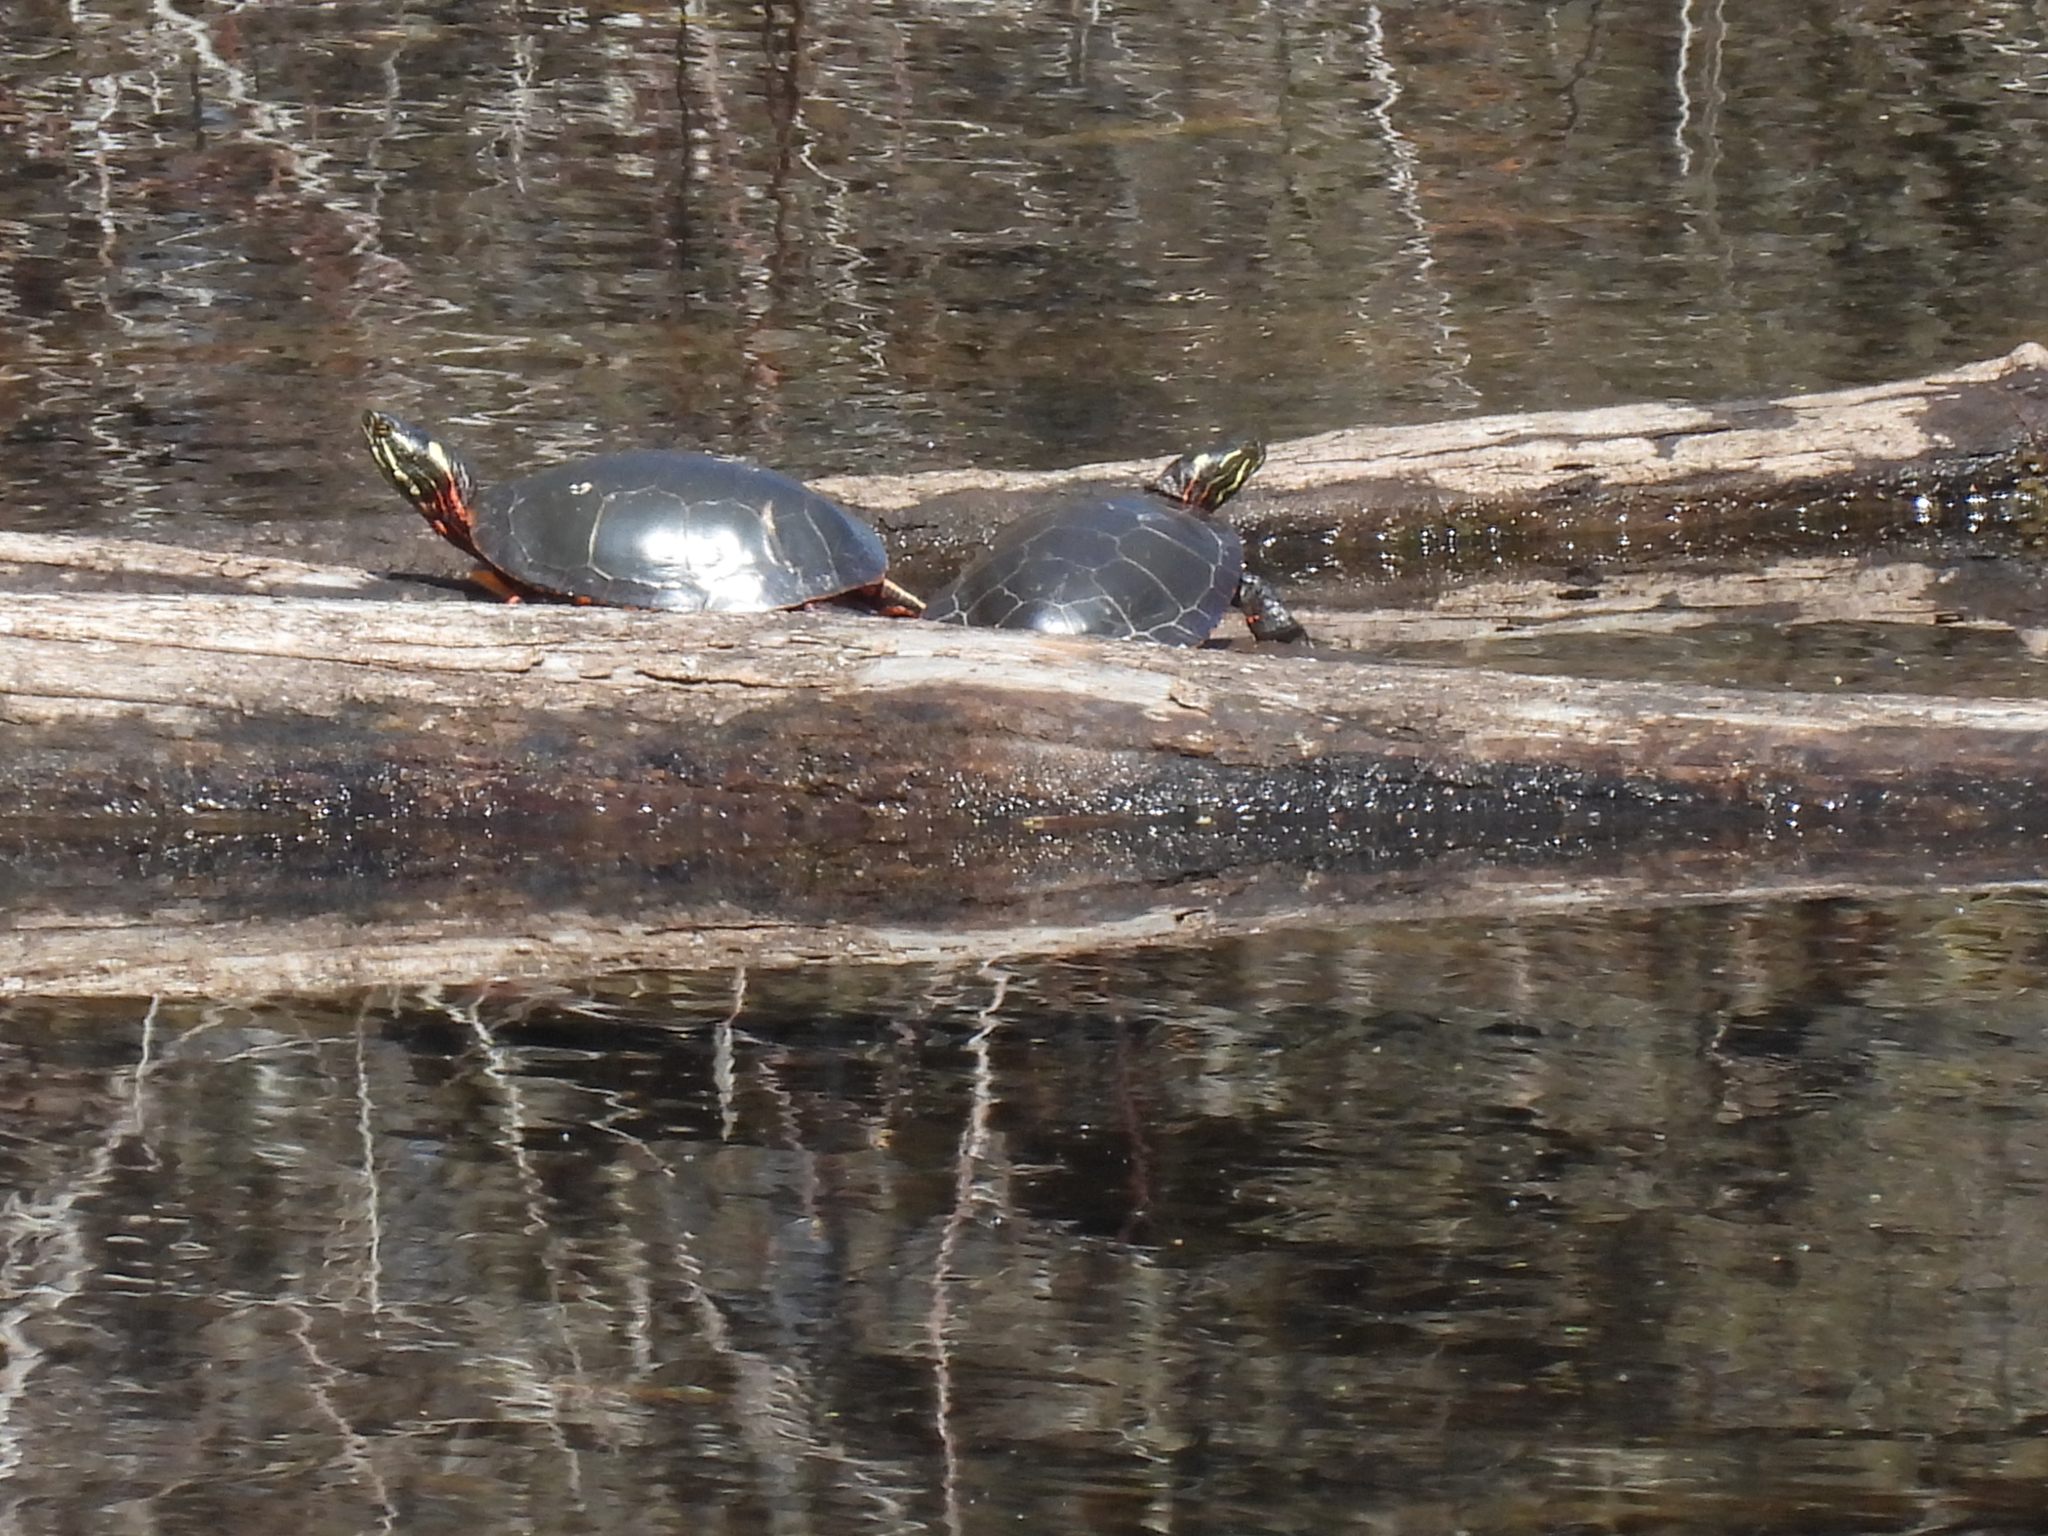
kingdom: Animalia
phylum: Chordata
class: Testudines
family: Emydidae
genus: Chrysemys
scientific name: Chrysemys picta
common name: Painted turtle
